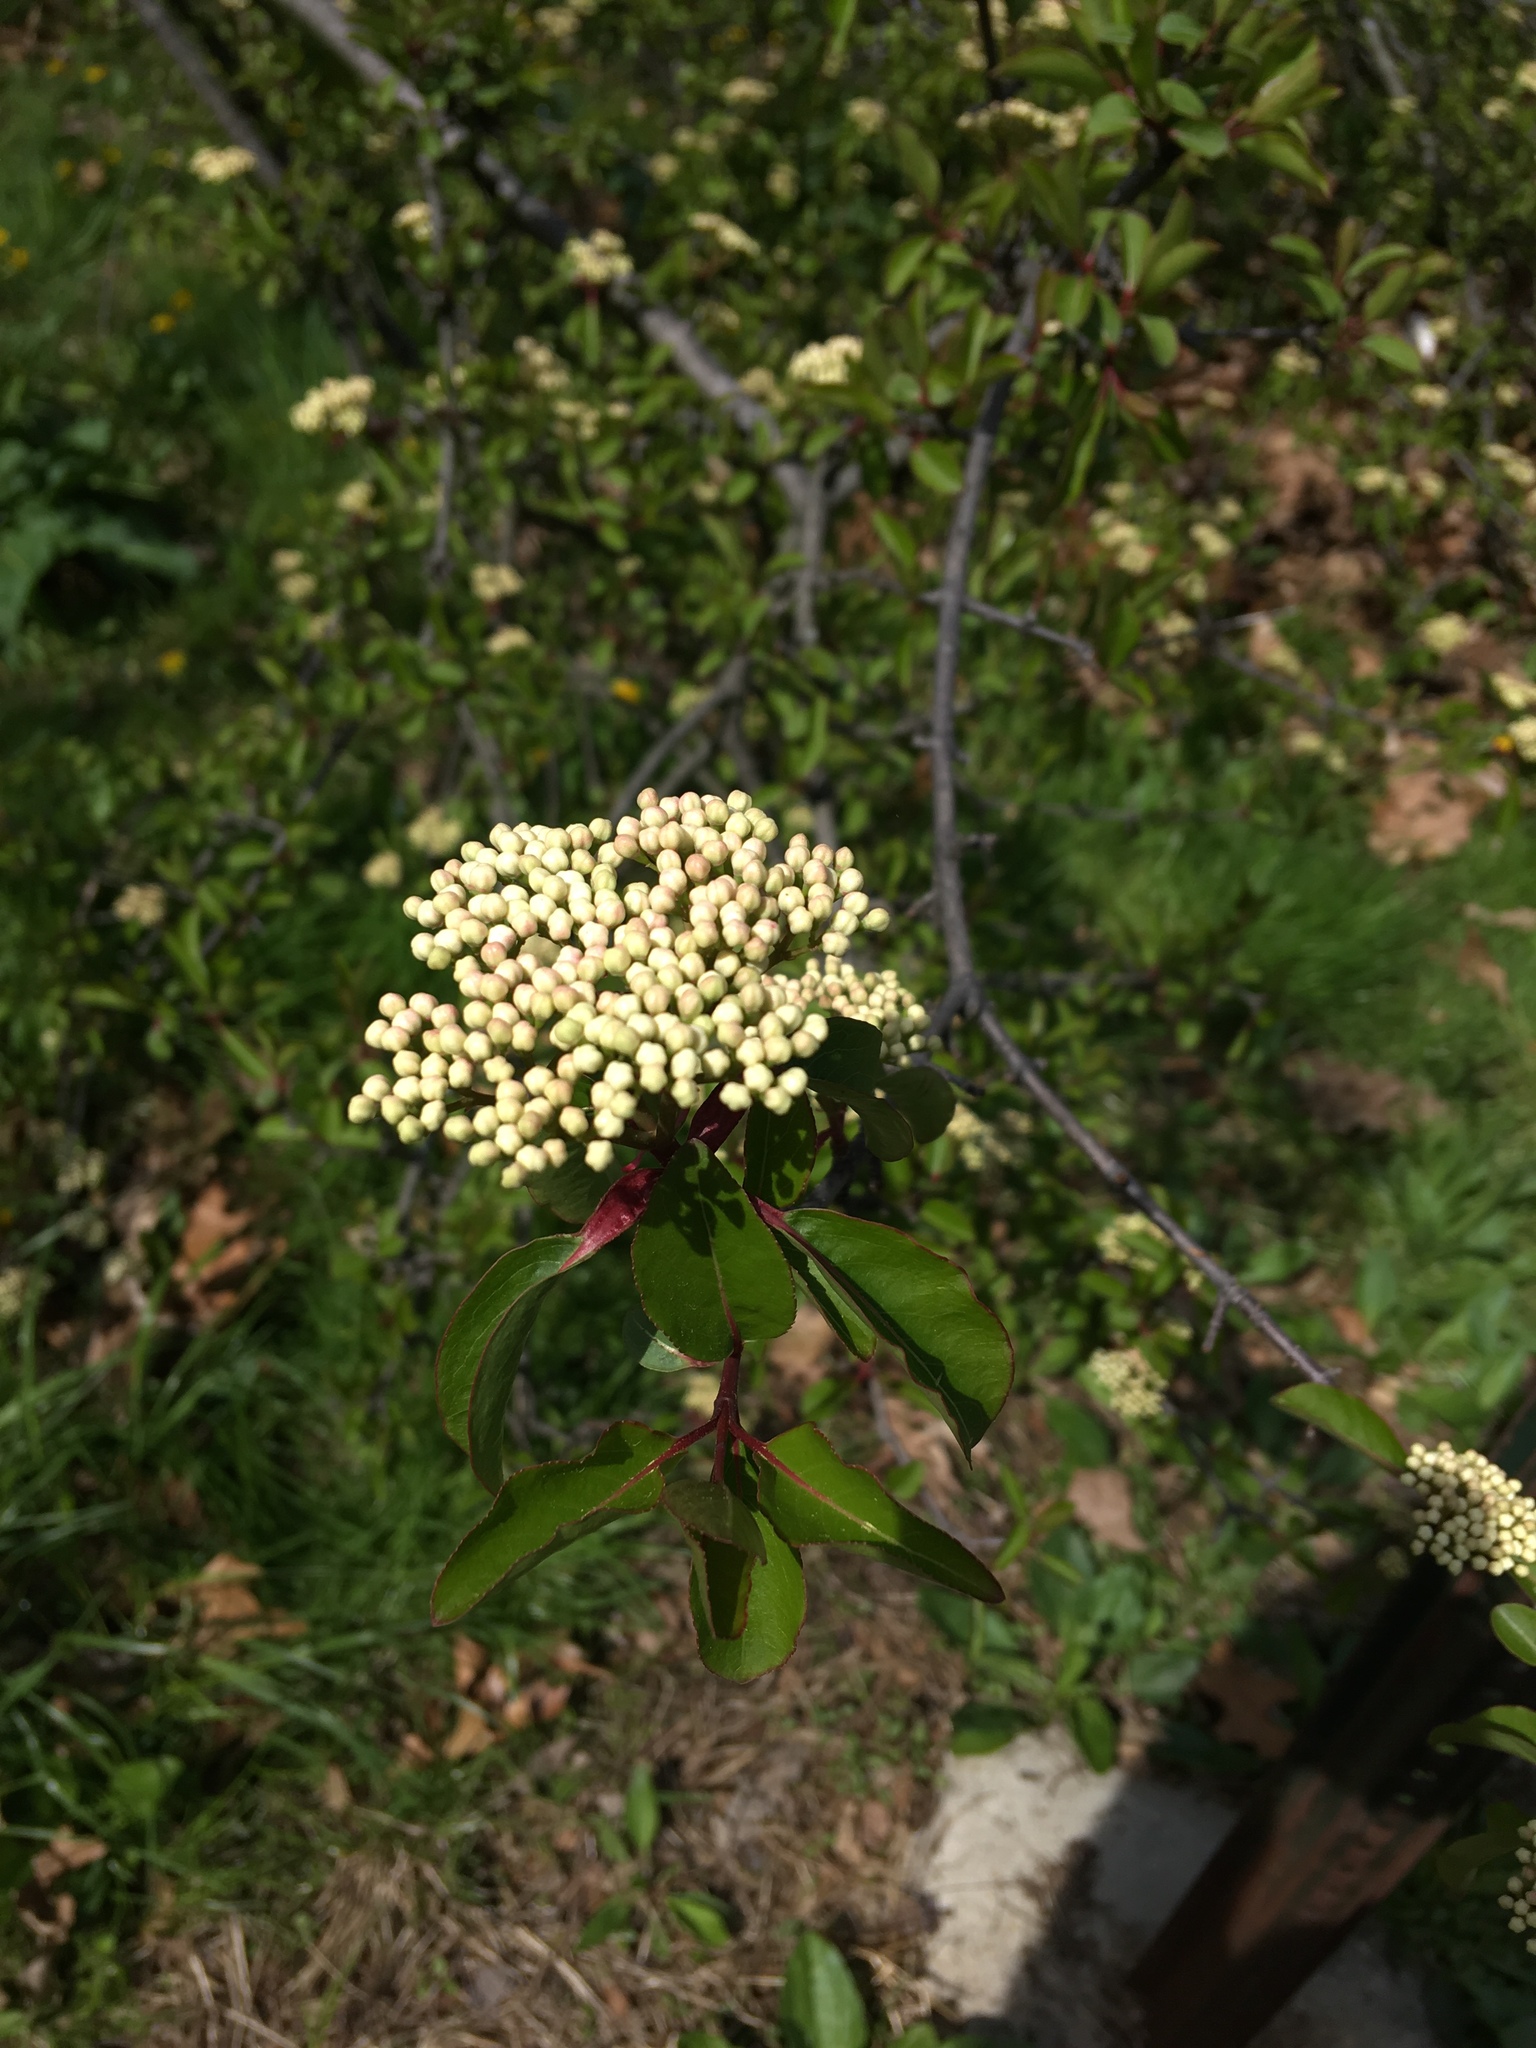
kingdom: Plantae
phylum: Tracheophyta
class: Magnoliopsida
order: Dipsacales
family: Viburnaceae
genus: Viburnum
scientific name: Viburnum prunifolium
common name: Black haw
